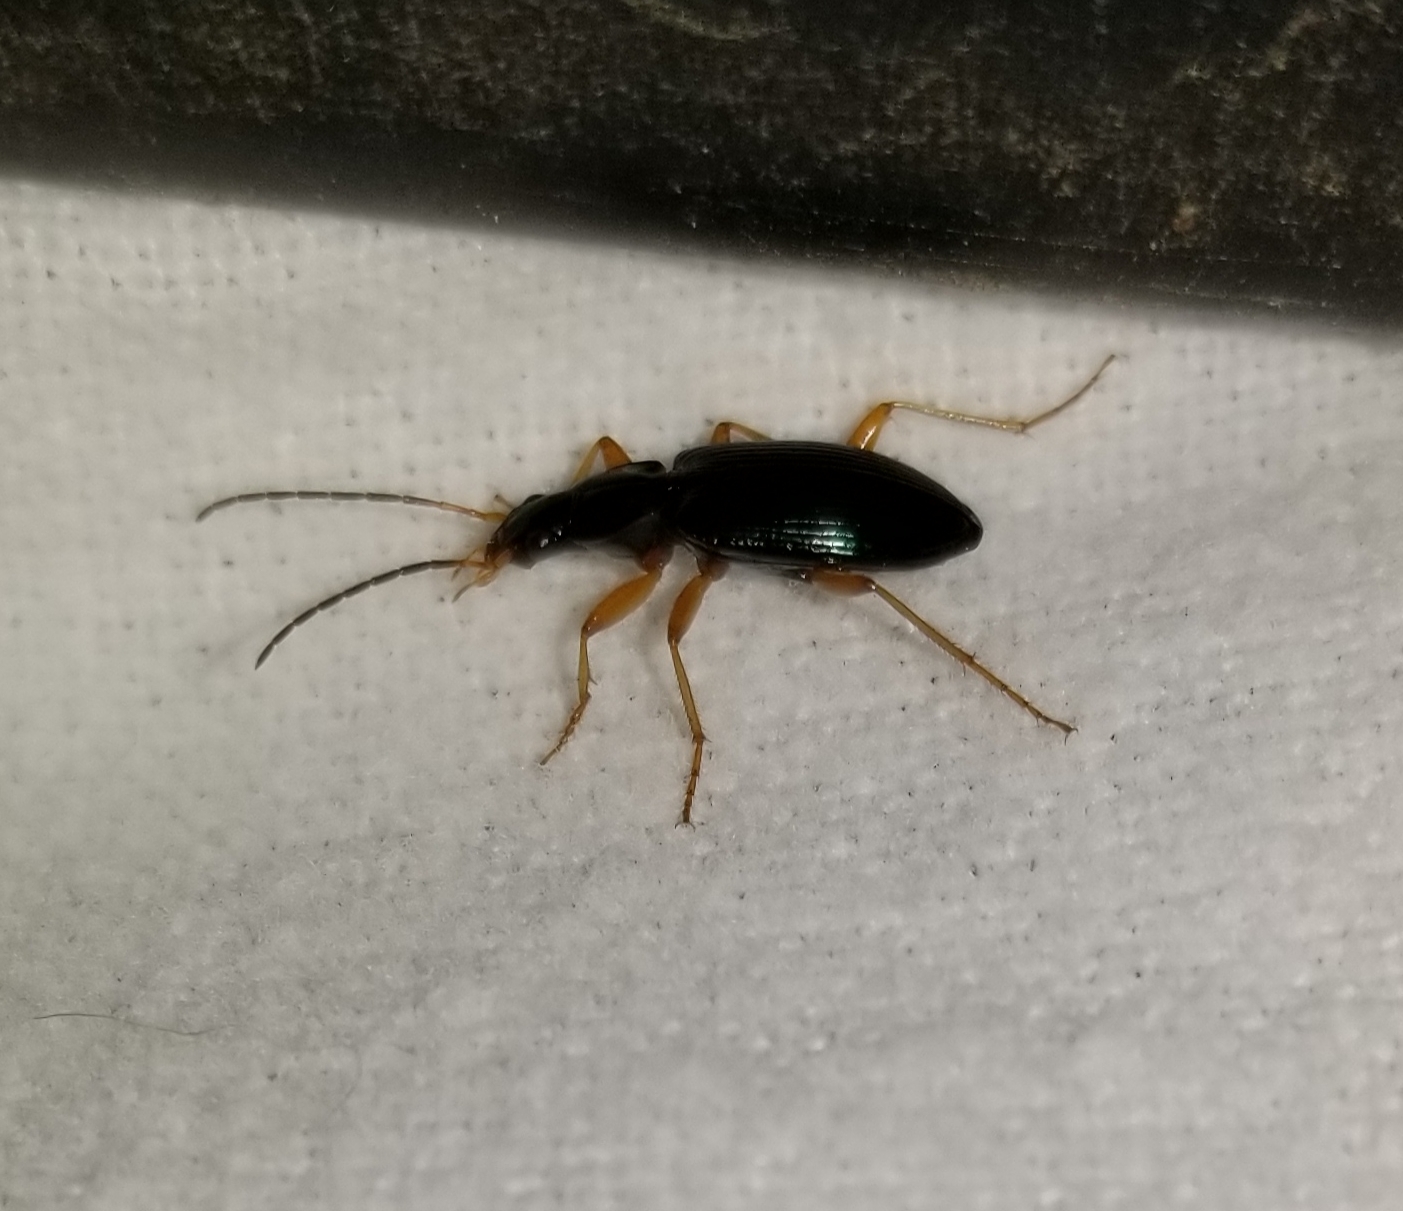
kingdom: Animalia
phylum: Arthropoda
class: Insecta
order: Coleoptera
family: Carabidae
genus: Agonum
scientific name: Agonum extensicolle
